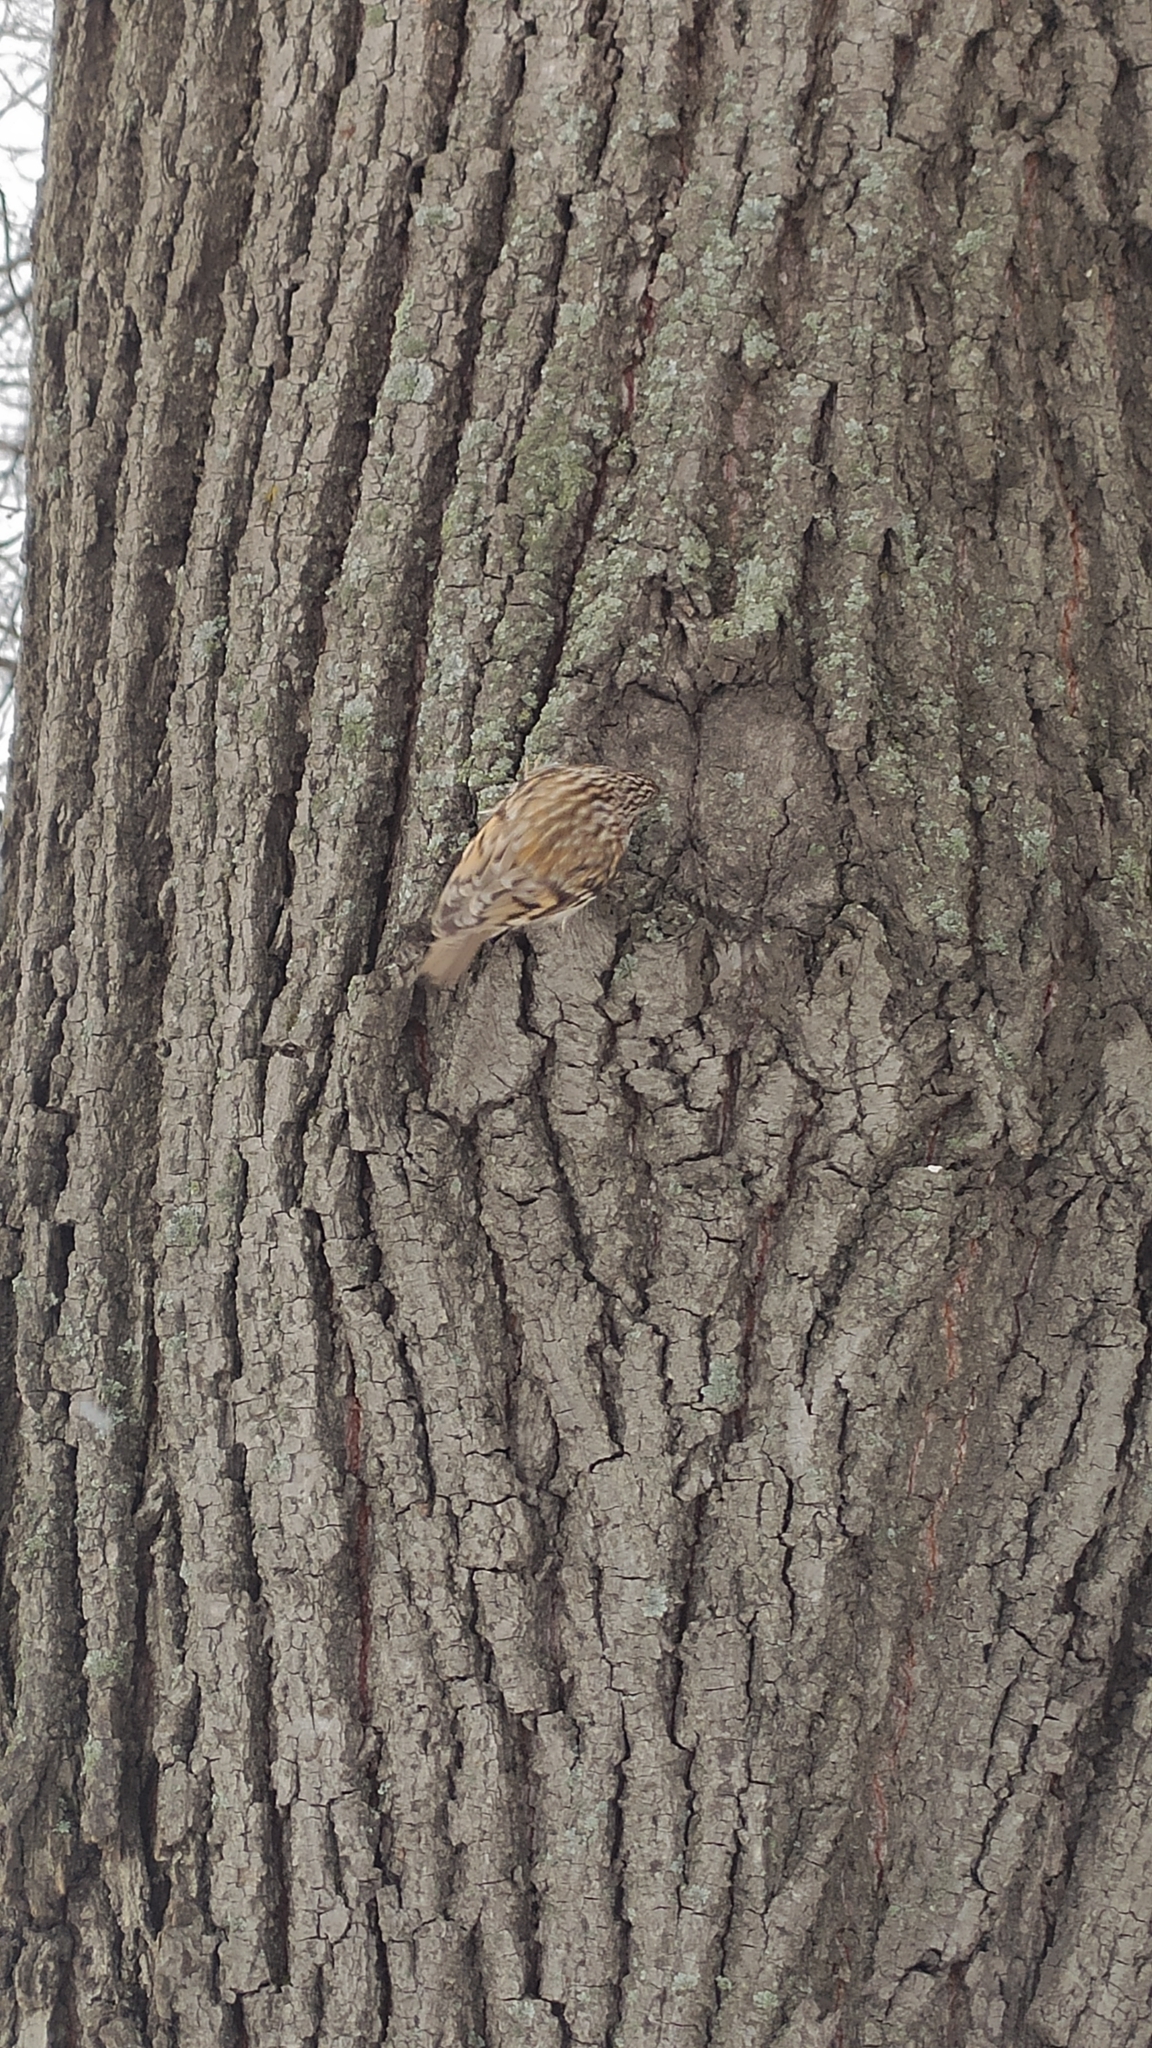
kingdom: Animalia
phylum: Chordata
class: Aves
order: Passeriformes
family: Certhiidae
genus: Certhia
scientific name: Certhia familiaris
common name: Eurasian treecreeper
